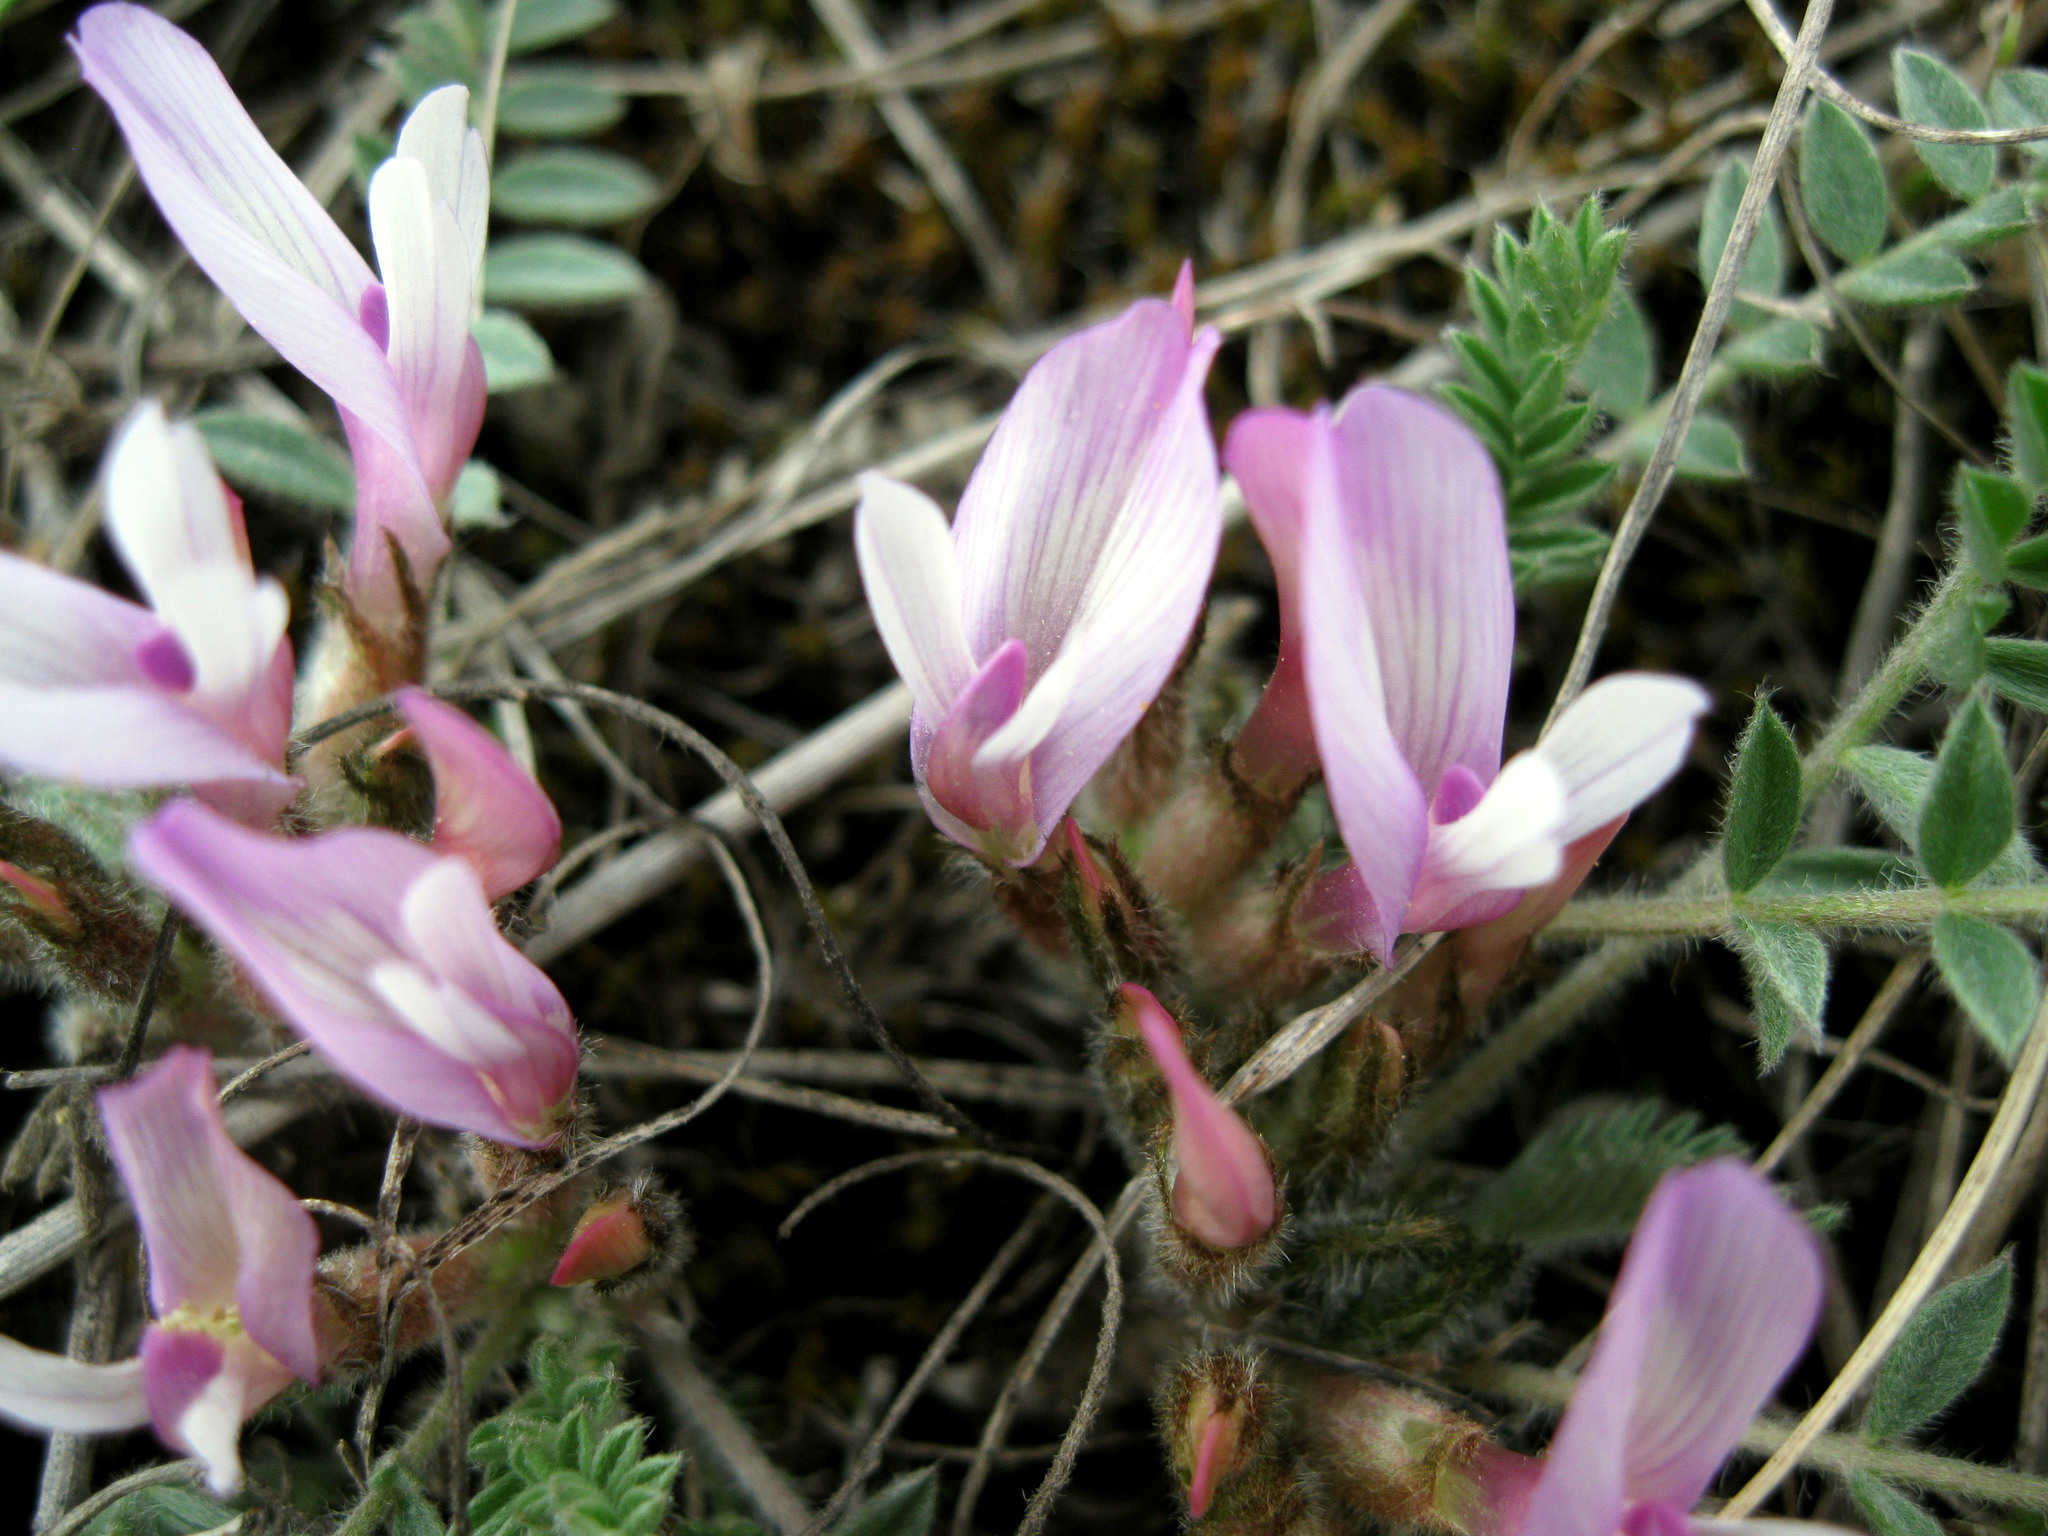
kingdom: Plantae
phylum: Tracheophyta
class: Magnoliopsida
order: Fabales
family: Fabaceae
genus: Astragalus
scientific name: Astragalus testiculatus
